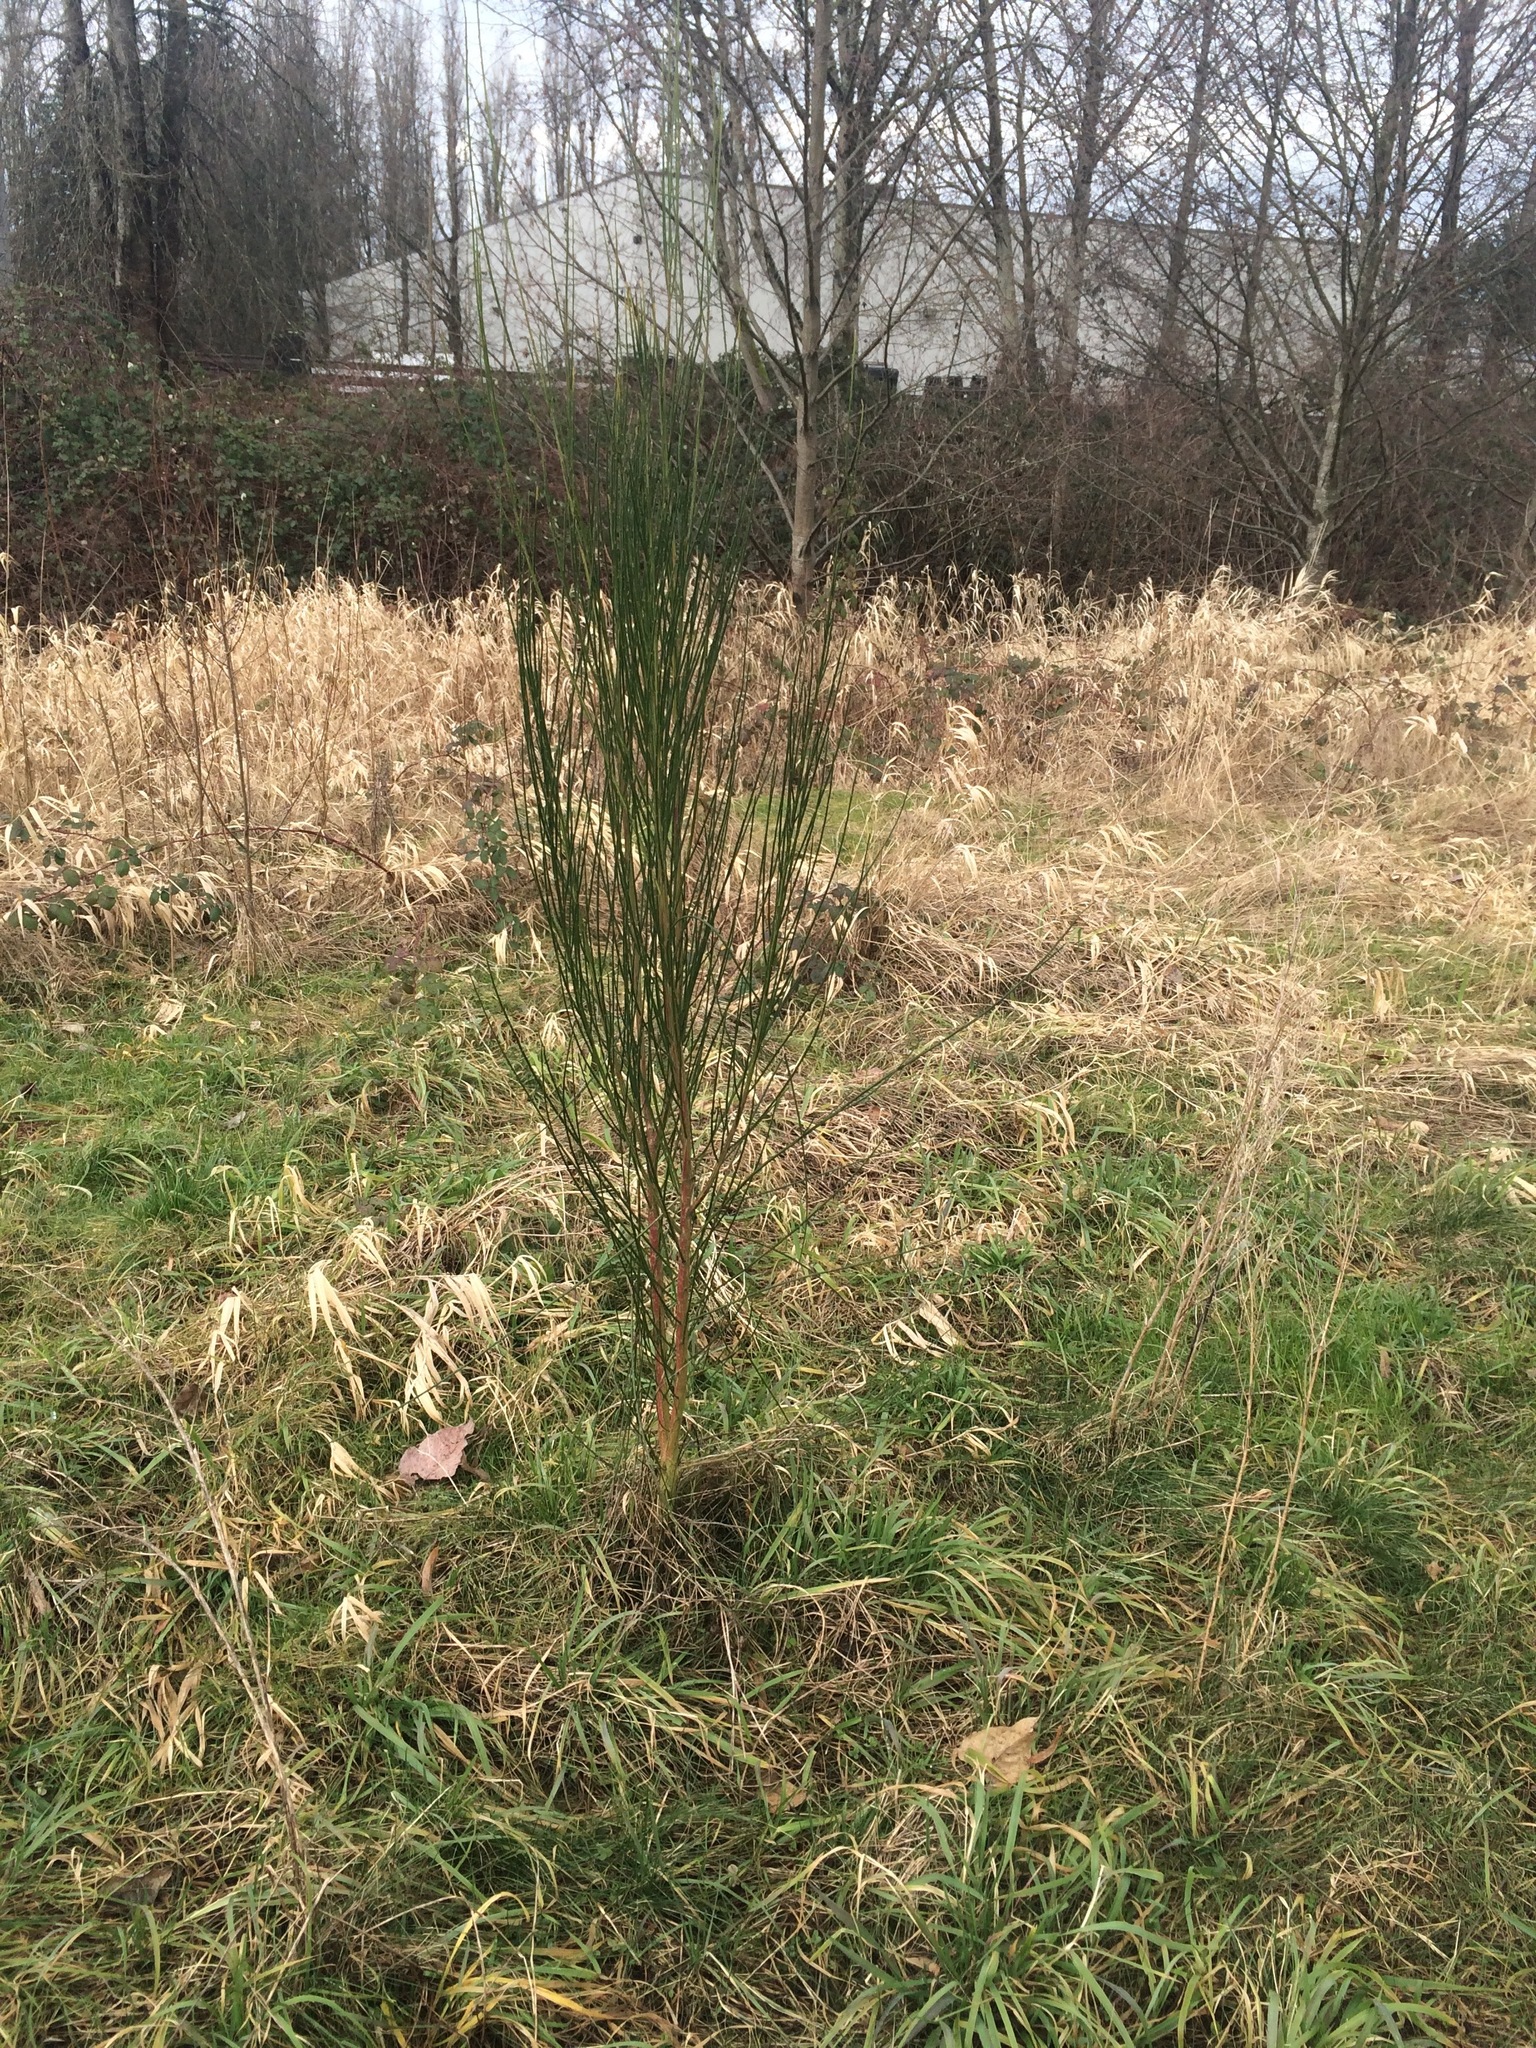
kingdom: Plantae
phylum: Tracheophyta
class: Magnoliopsida
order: Fabales
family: Fabaceae
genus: Cytisus
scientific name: Cytisus scoparius
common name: Scotch broom
